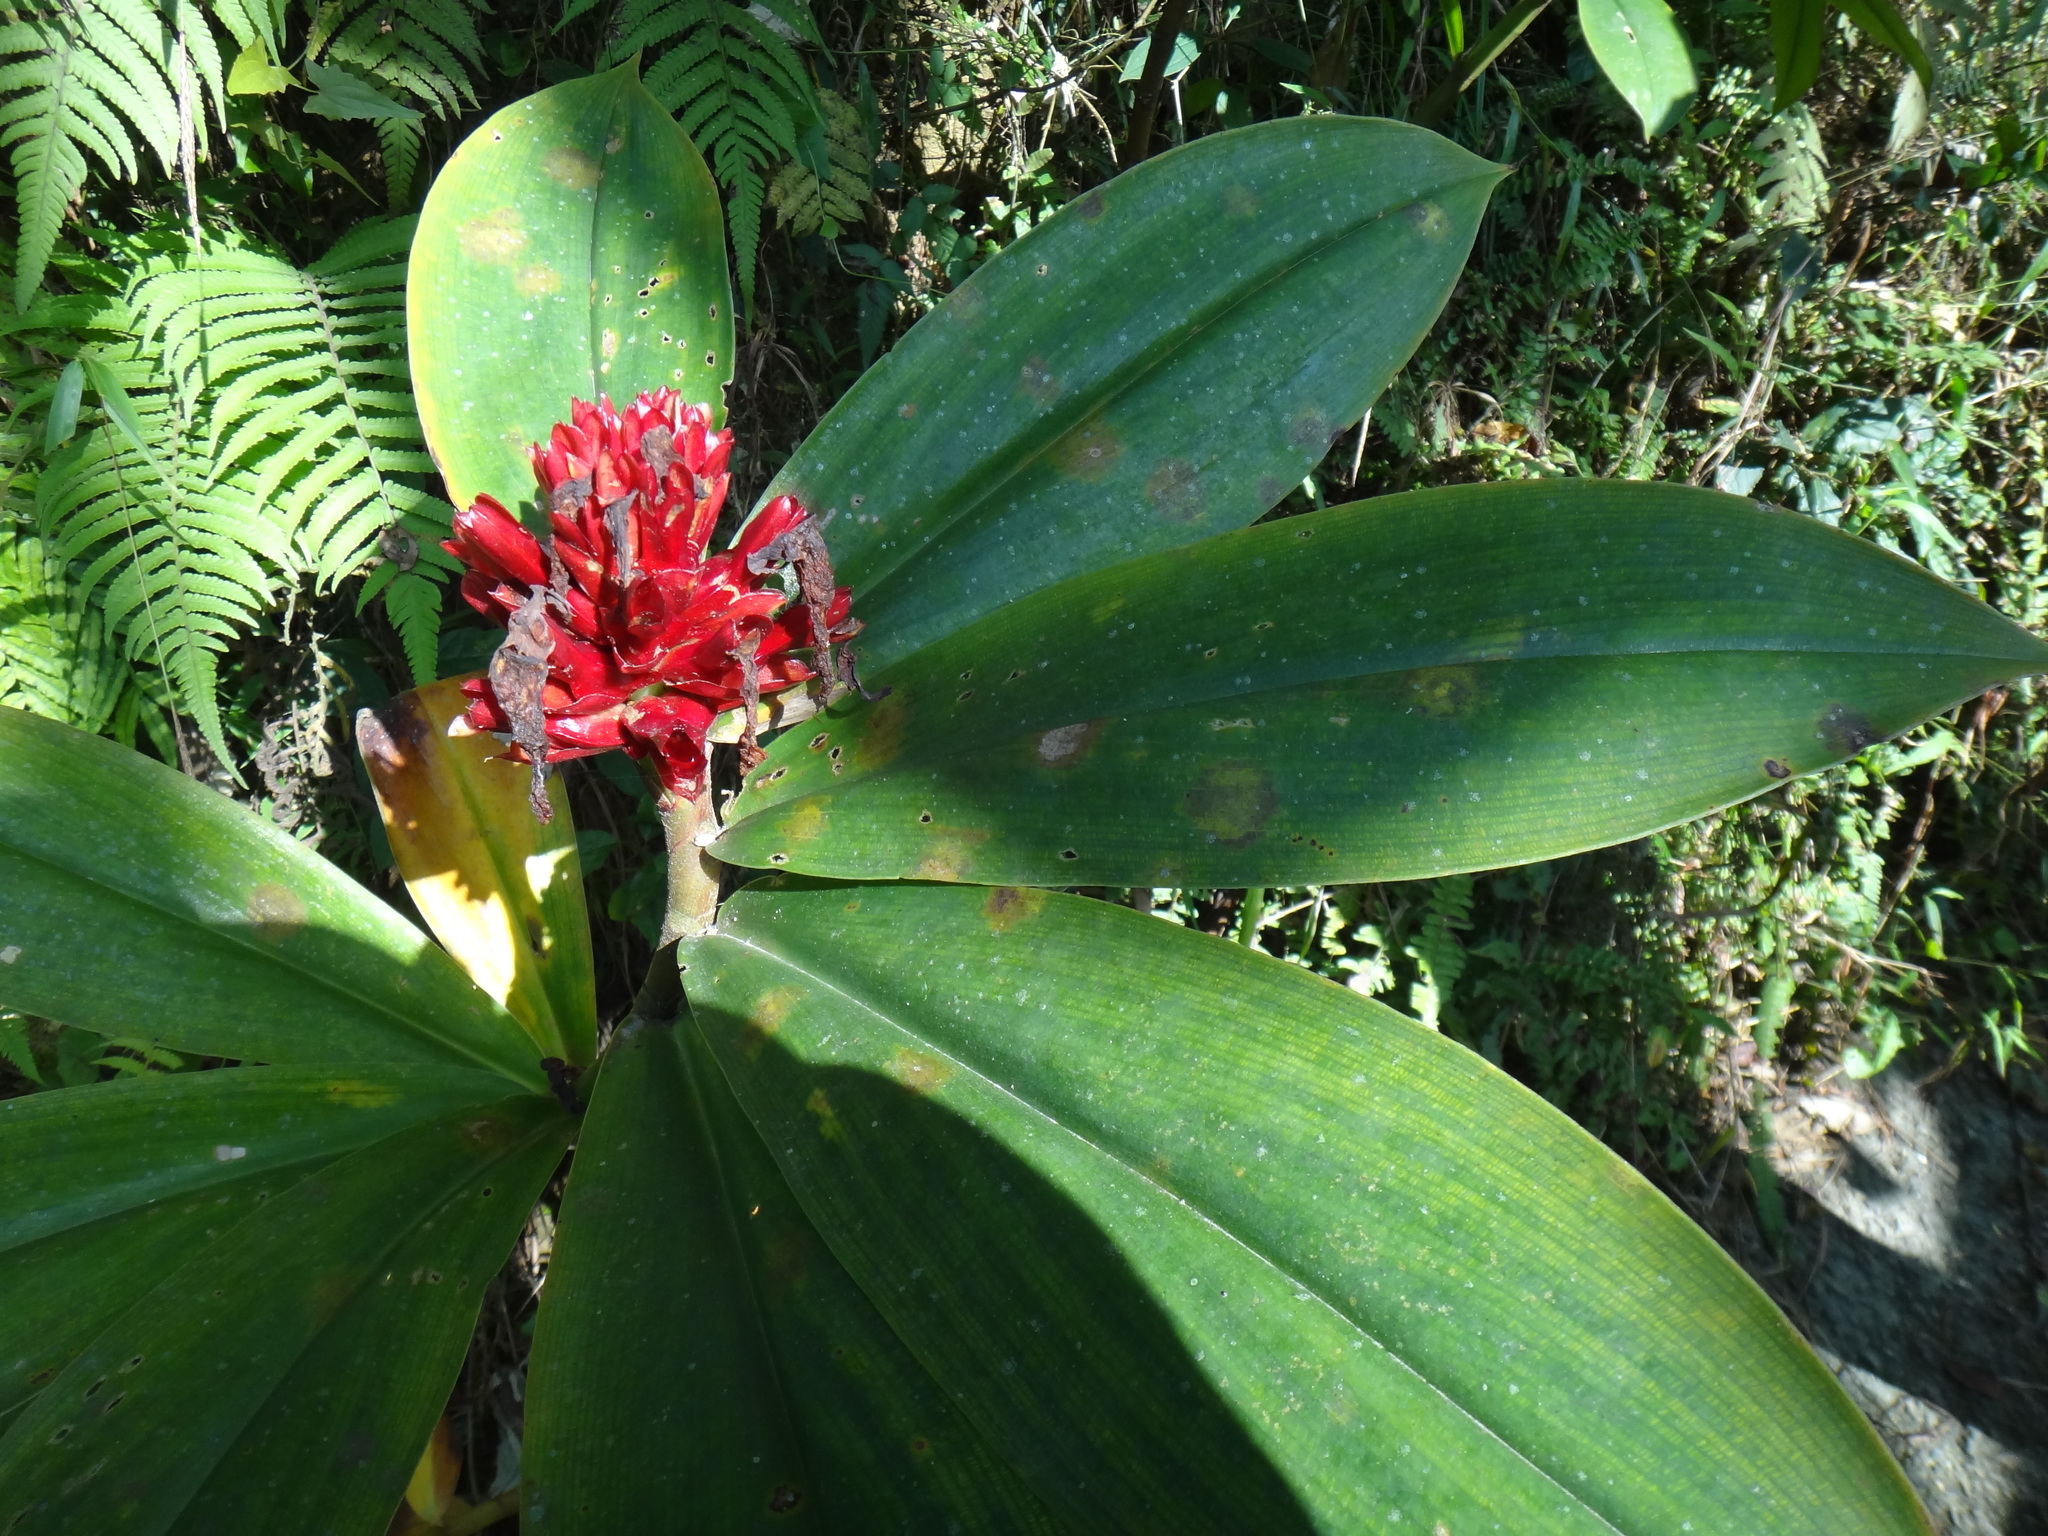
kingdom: Plantae
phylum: Tracheophyta
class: Liliopsida
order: Zingiberales
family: Costaceae
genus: Hellenia
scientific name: Hellenia speciosa
